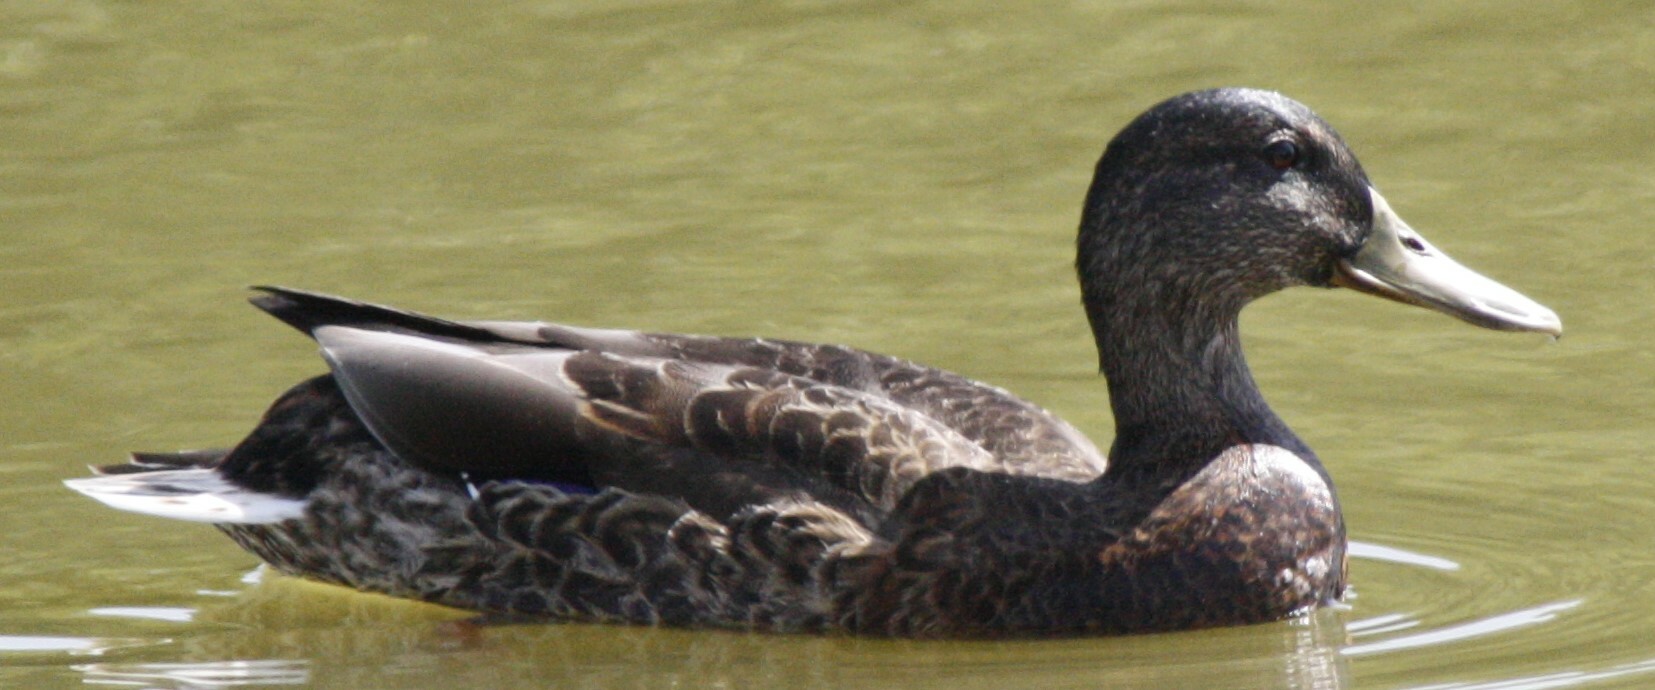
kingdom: Animalia
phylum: Chordata
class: Aves
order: Anseriformes
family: Anatidae
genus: Anas
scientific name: Anas platyrhynchos
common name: Mallard
